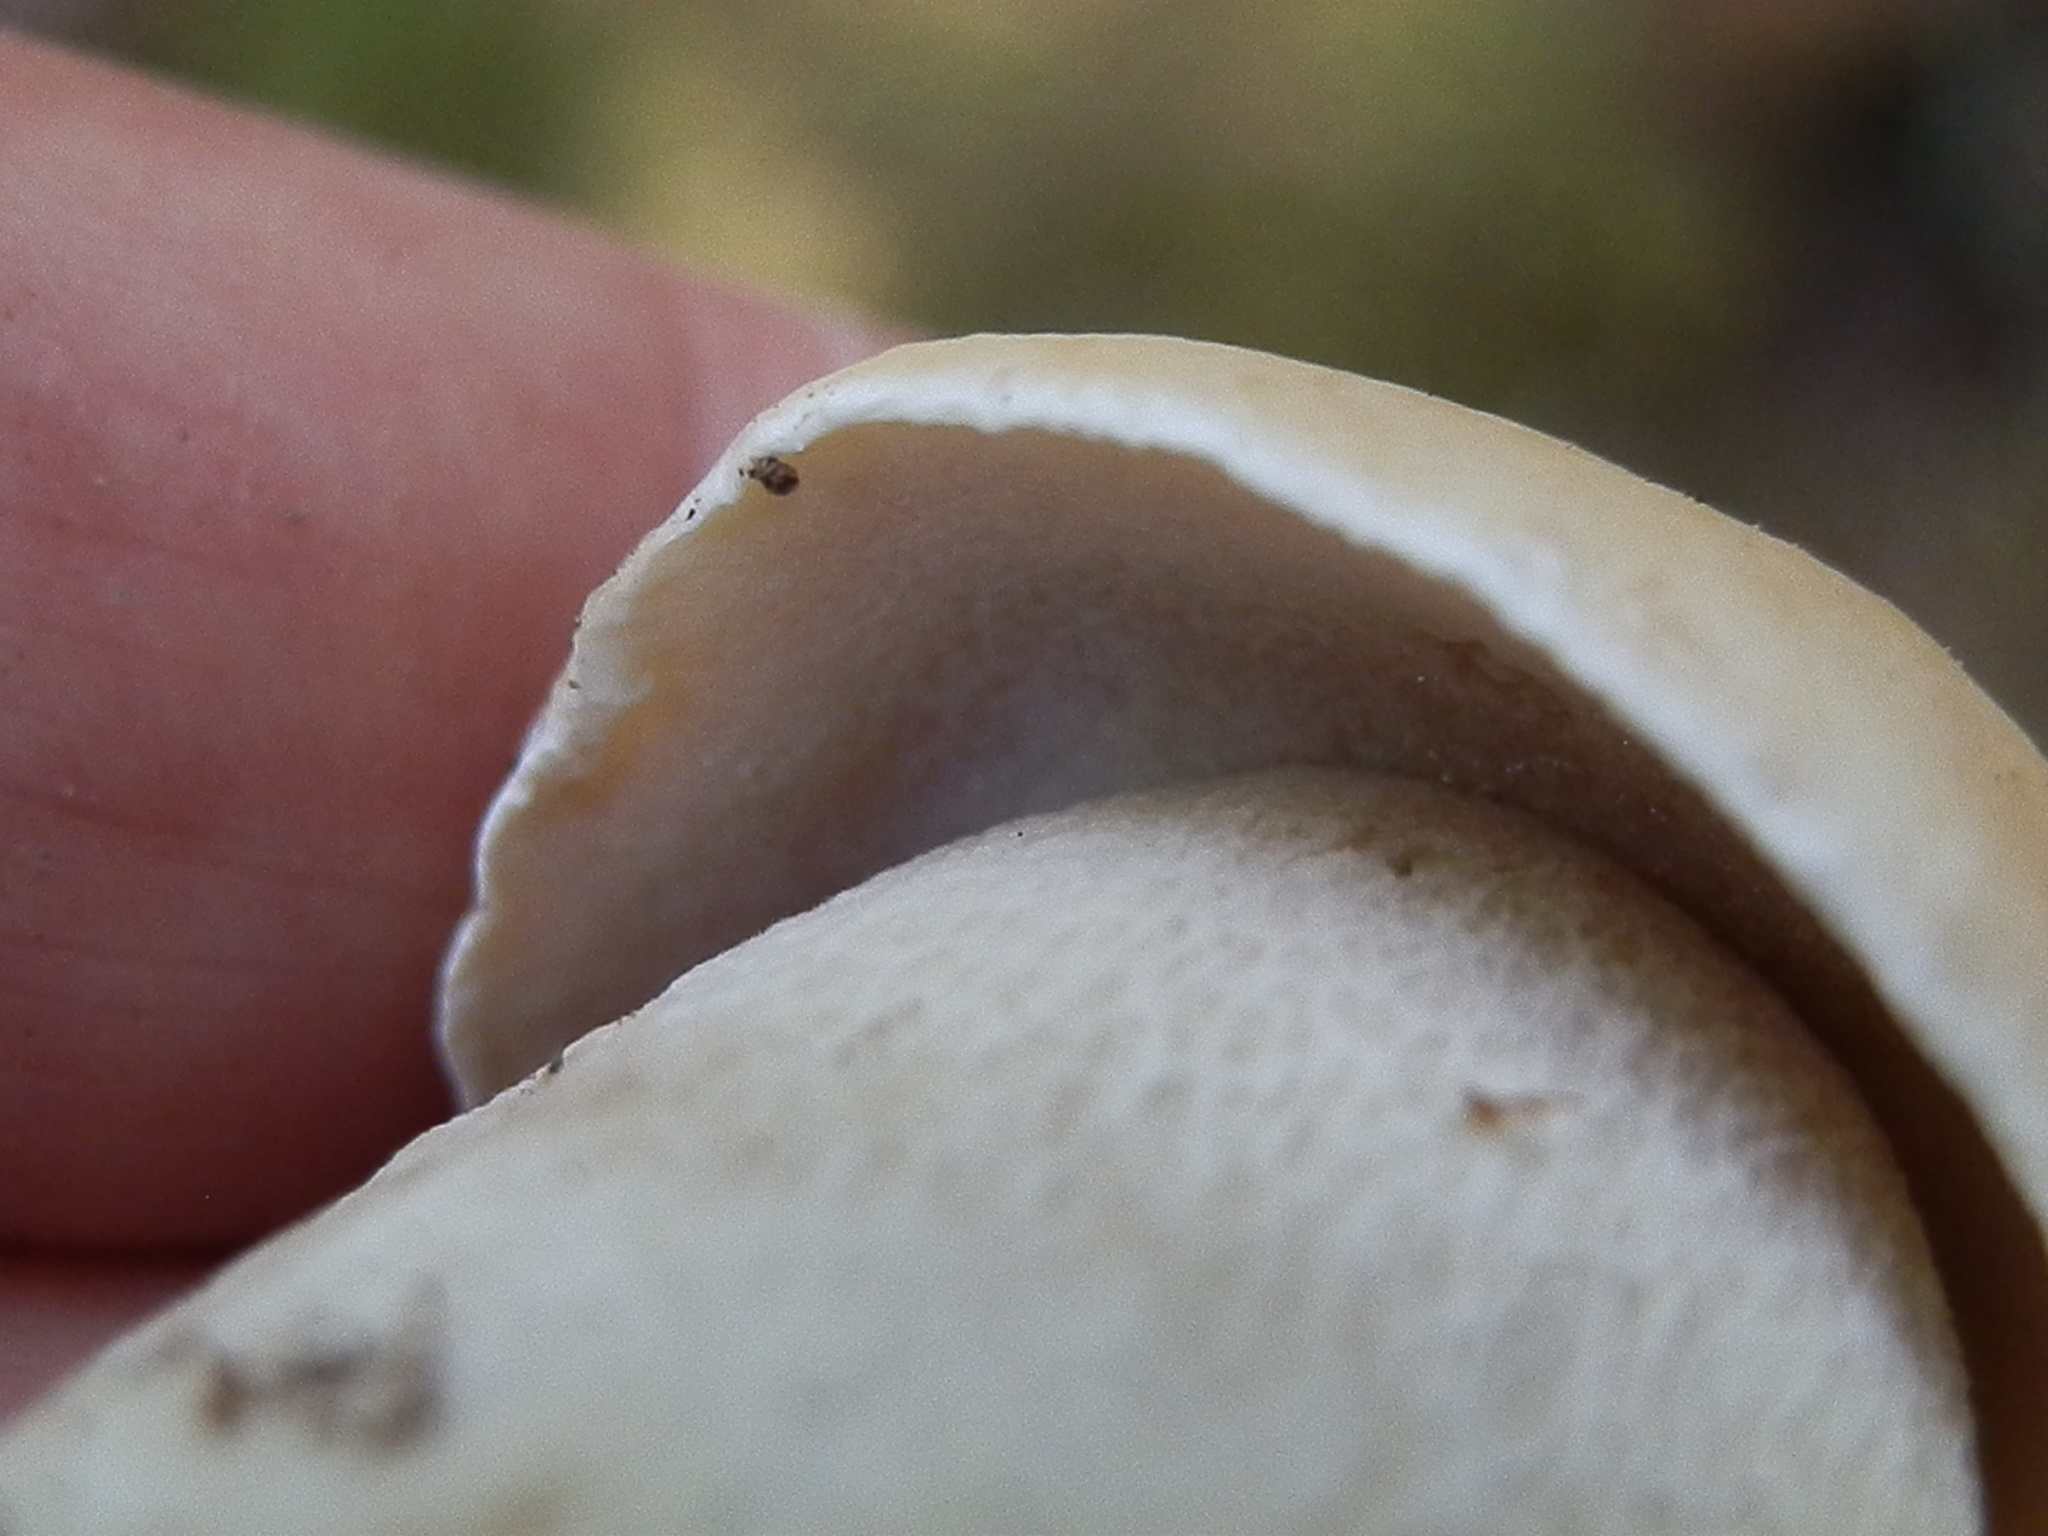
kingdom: Fungi
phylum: Basidiomycota
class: Agaricomycetes
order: Boletales
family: Boletaceae
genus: Boletus
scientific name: Boletus edulis
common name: Cep
